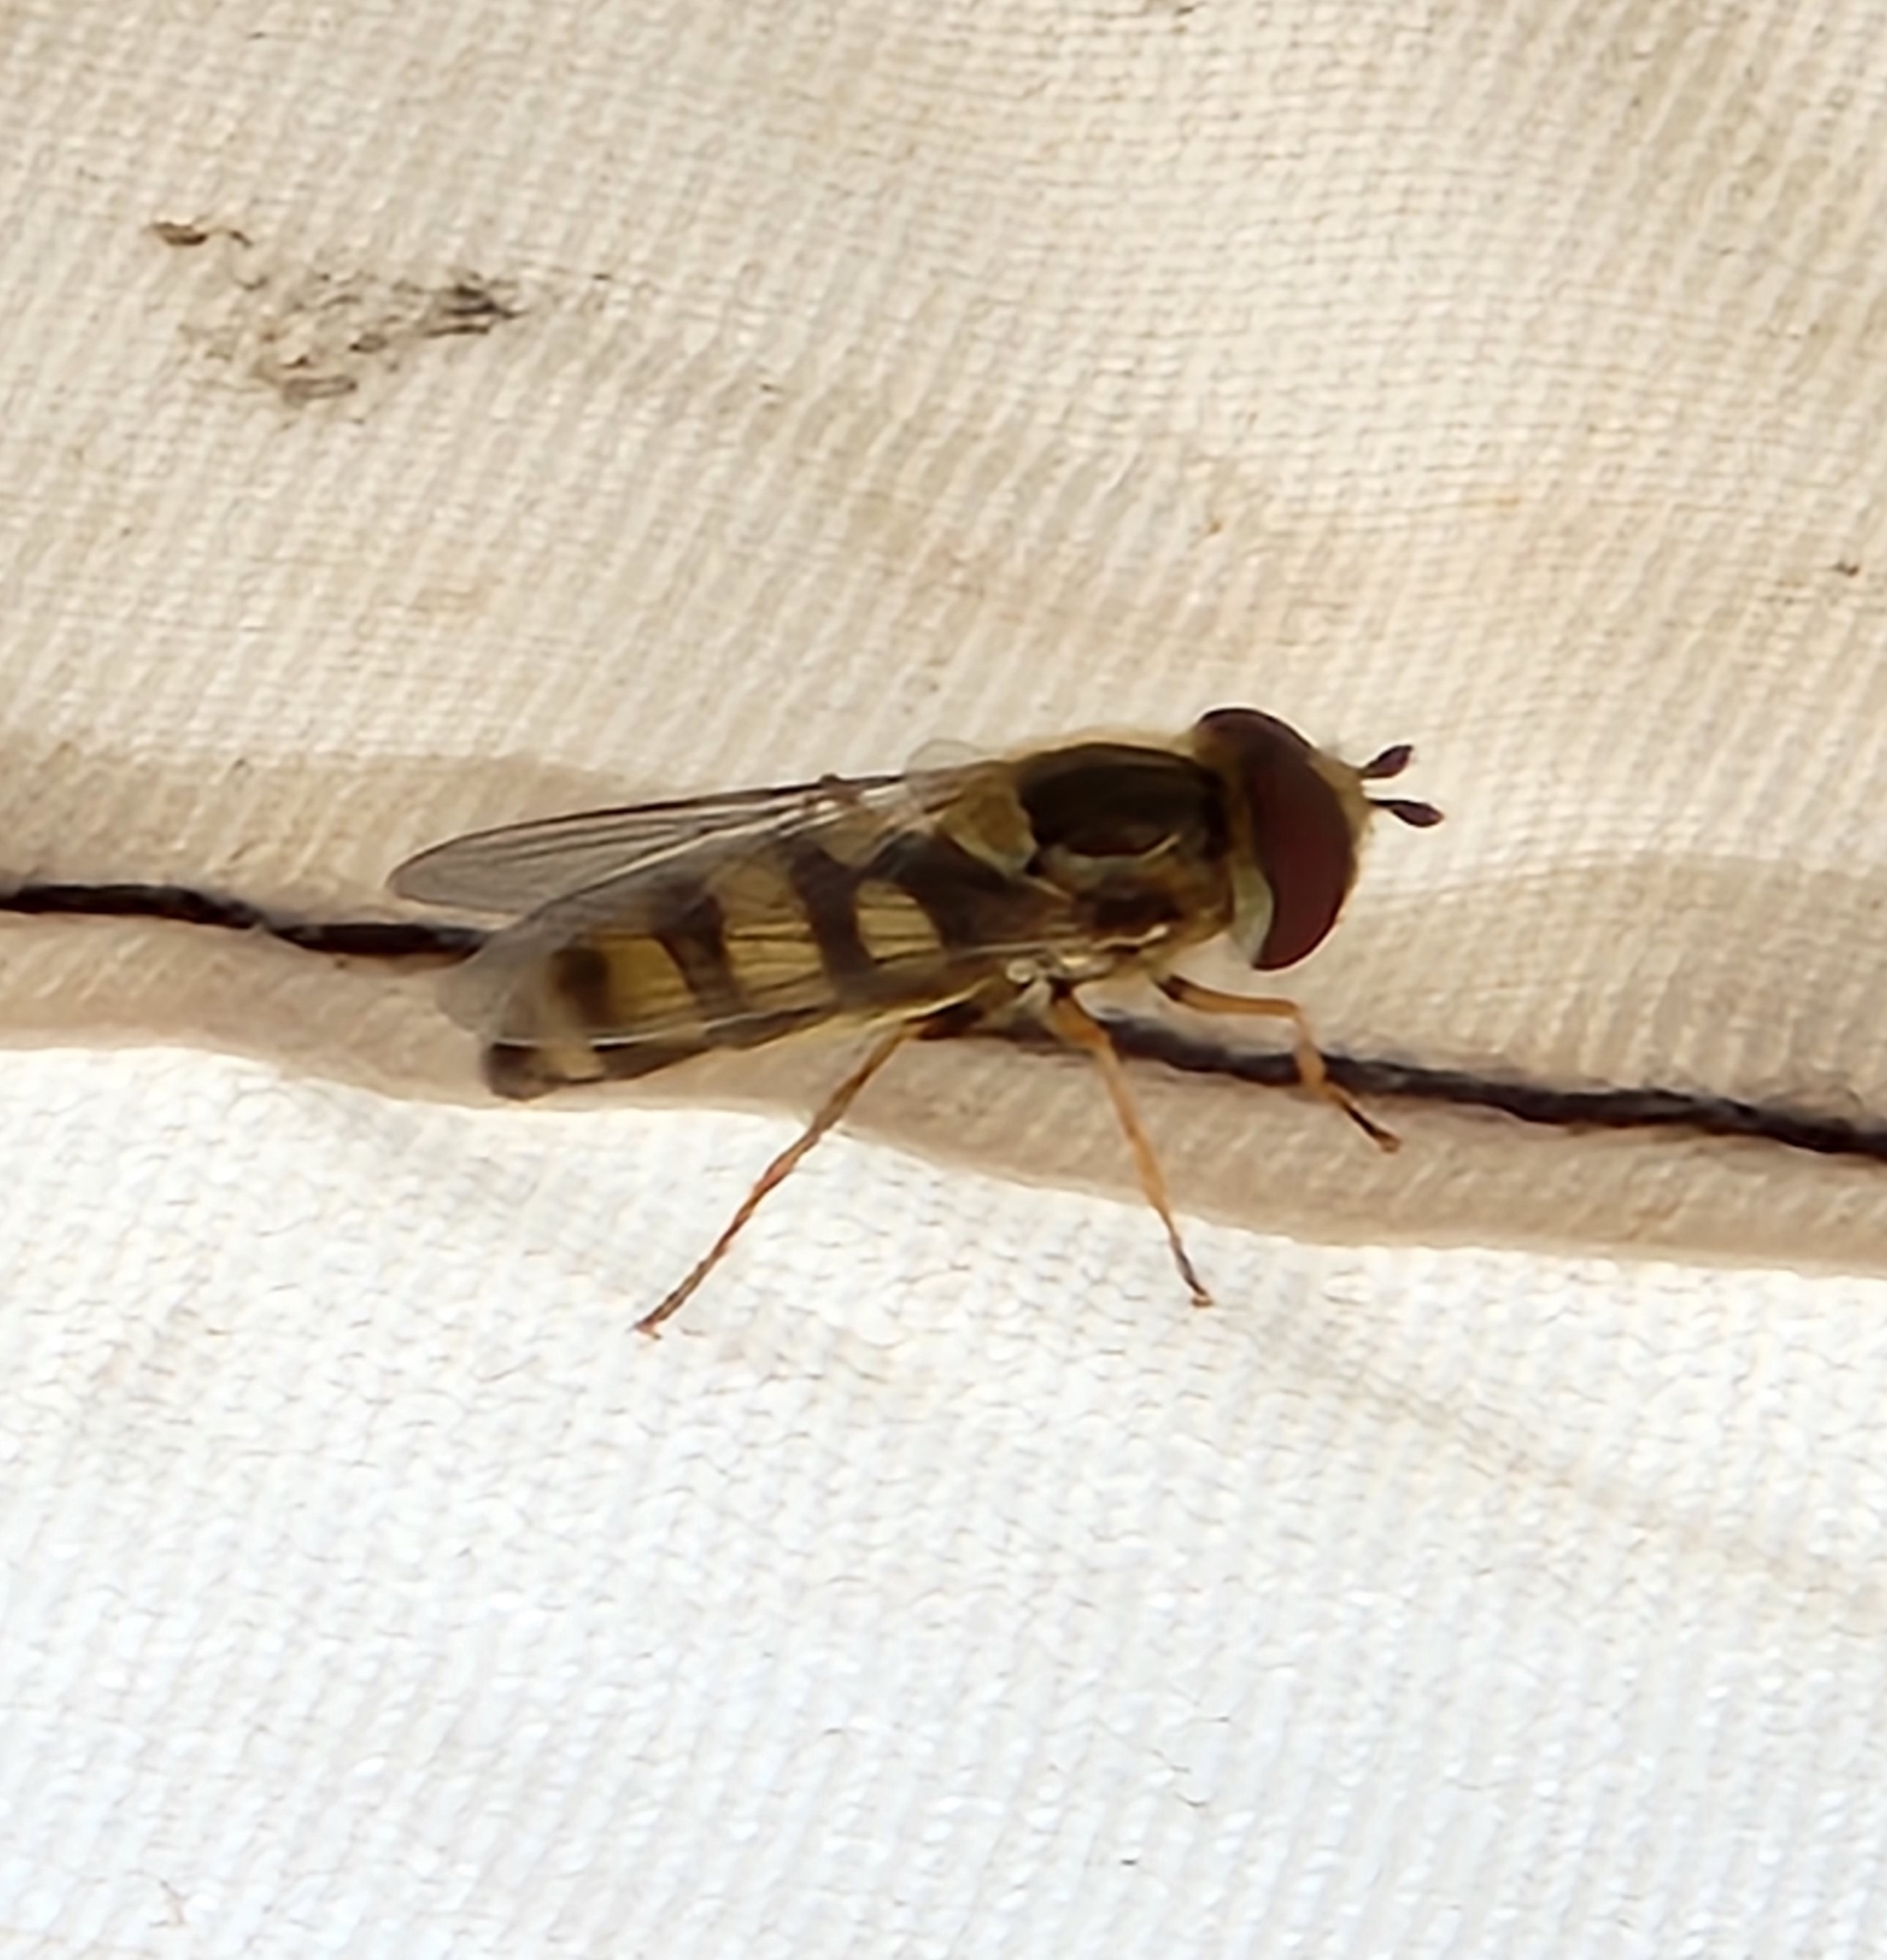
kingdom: Animalia
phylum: Arthropoda
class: Insecta
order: Diptera
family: Syrphidae
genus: Eupeodes
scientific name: Eupeodes
